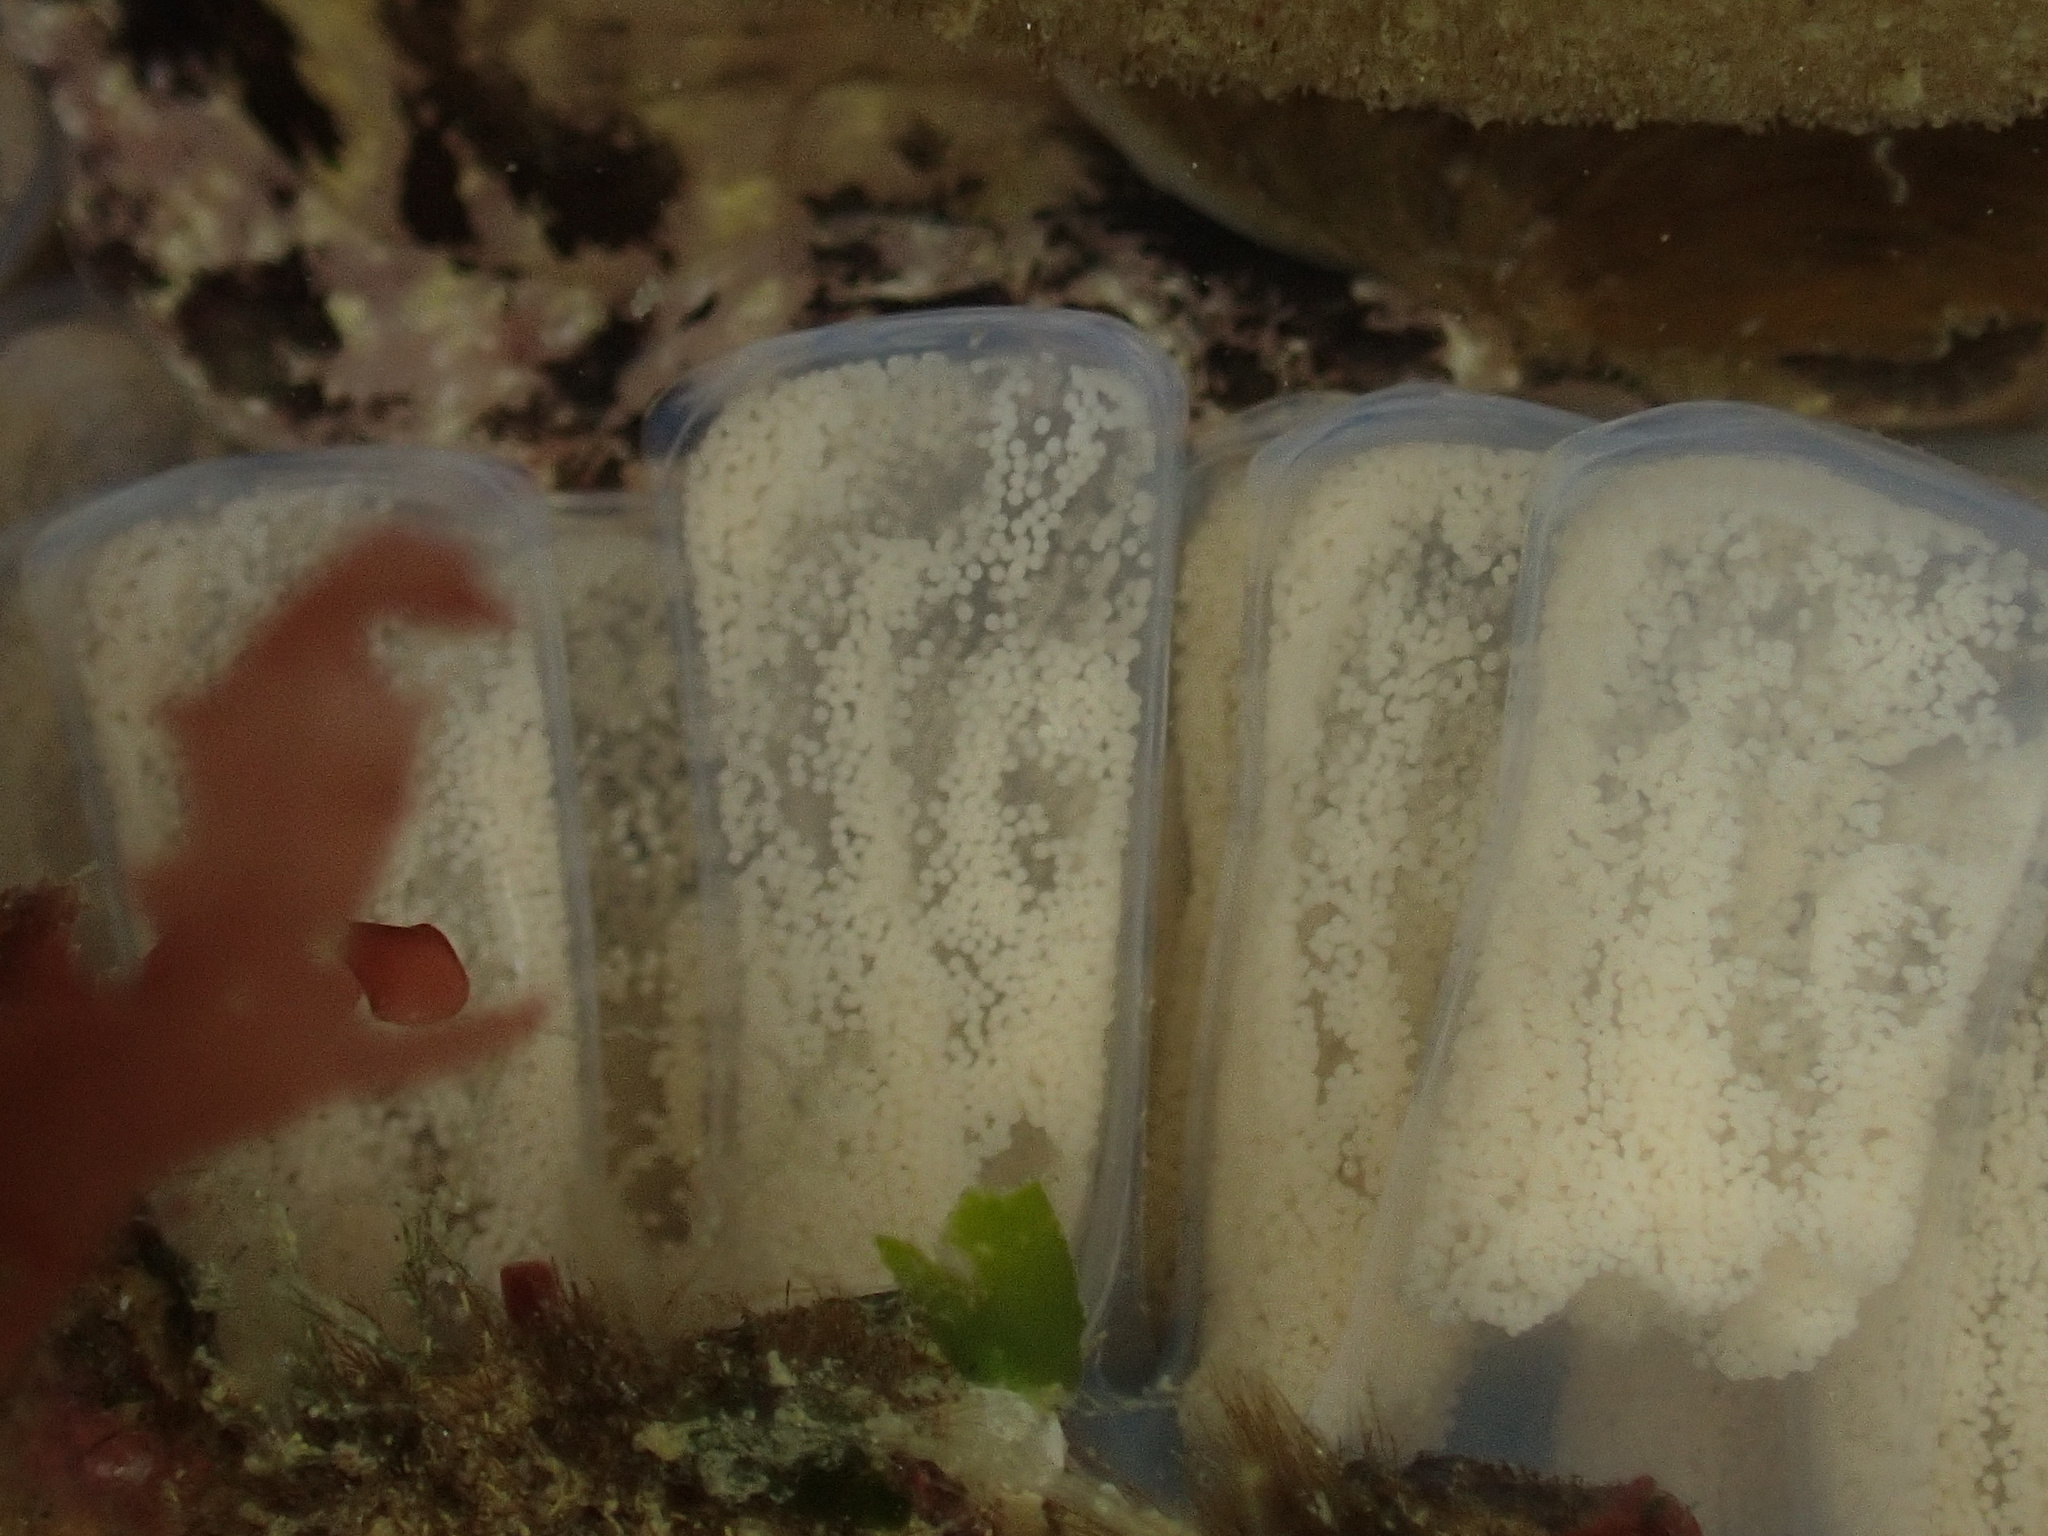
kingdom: Animalia
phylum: Mollusca
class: Gastropoda
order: Littorinimorpha
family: Cymatiidae
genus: Argobuccinum
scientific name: Argobuccinum pustulosum
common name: Pustular triton
